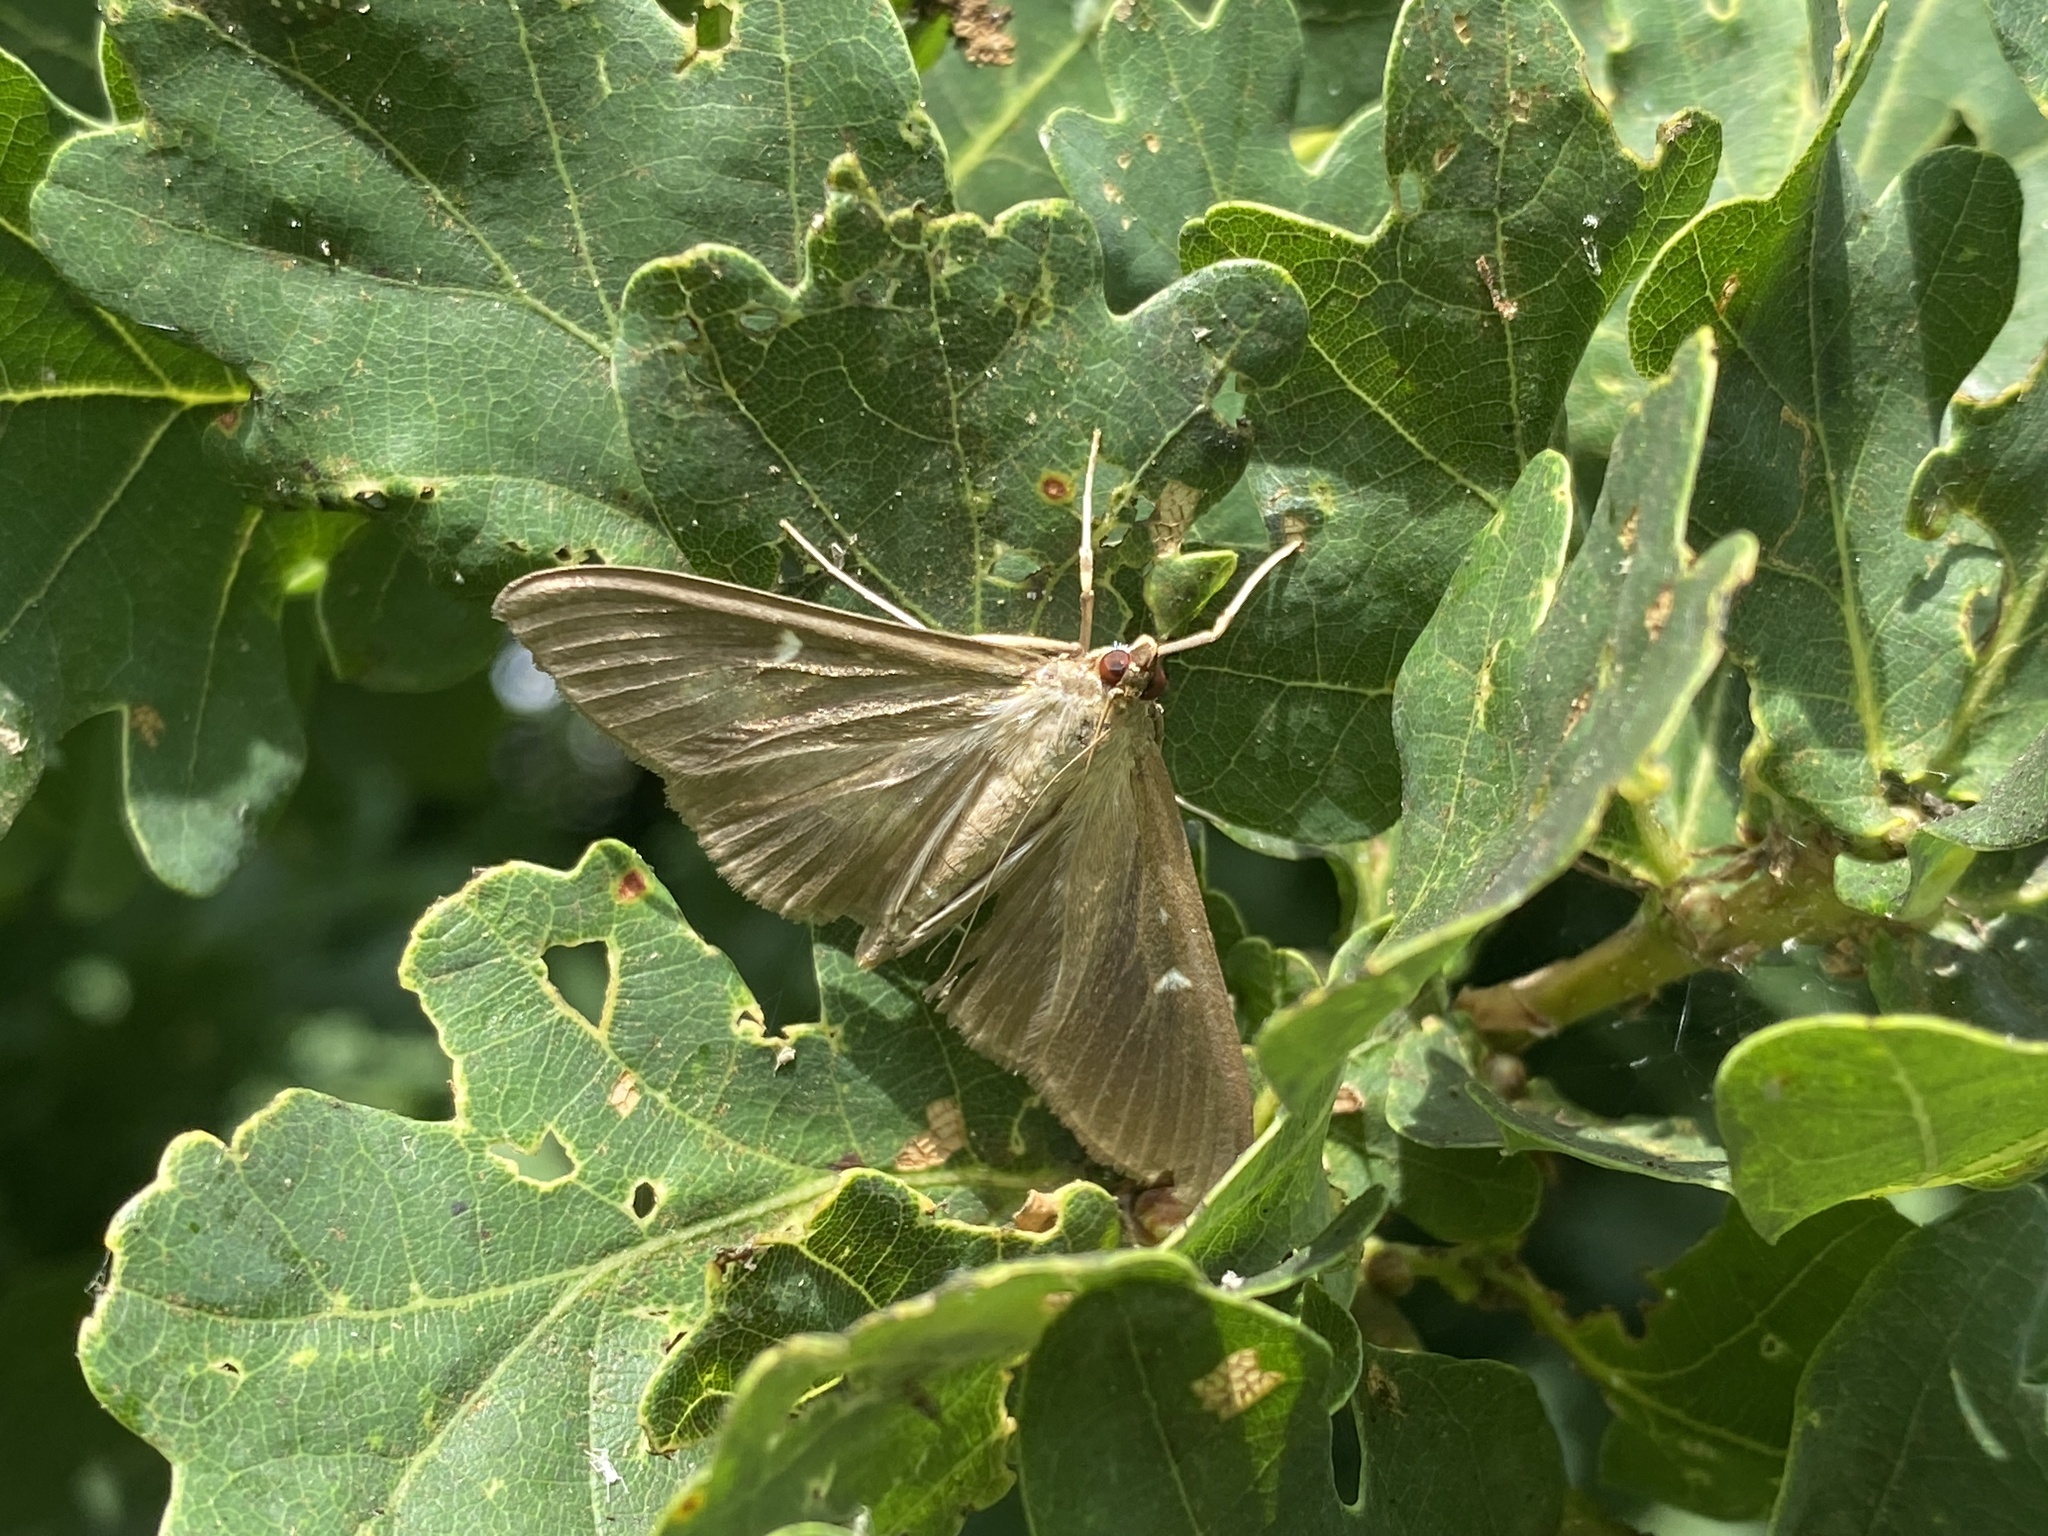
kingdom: Animalia
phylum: Arthropoda
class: Insecta
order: Lepidoptera
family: Crambidae
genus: Cydalima
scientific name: Cydalima perspectalis
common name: Box tree moth
